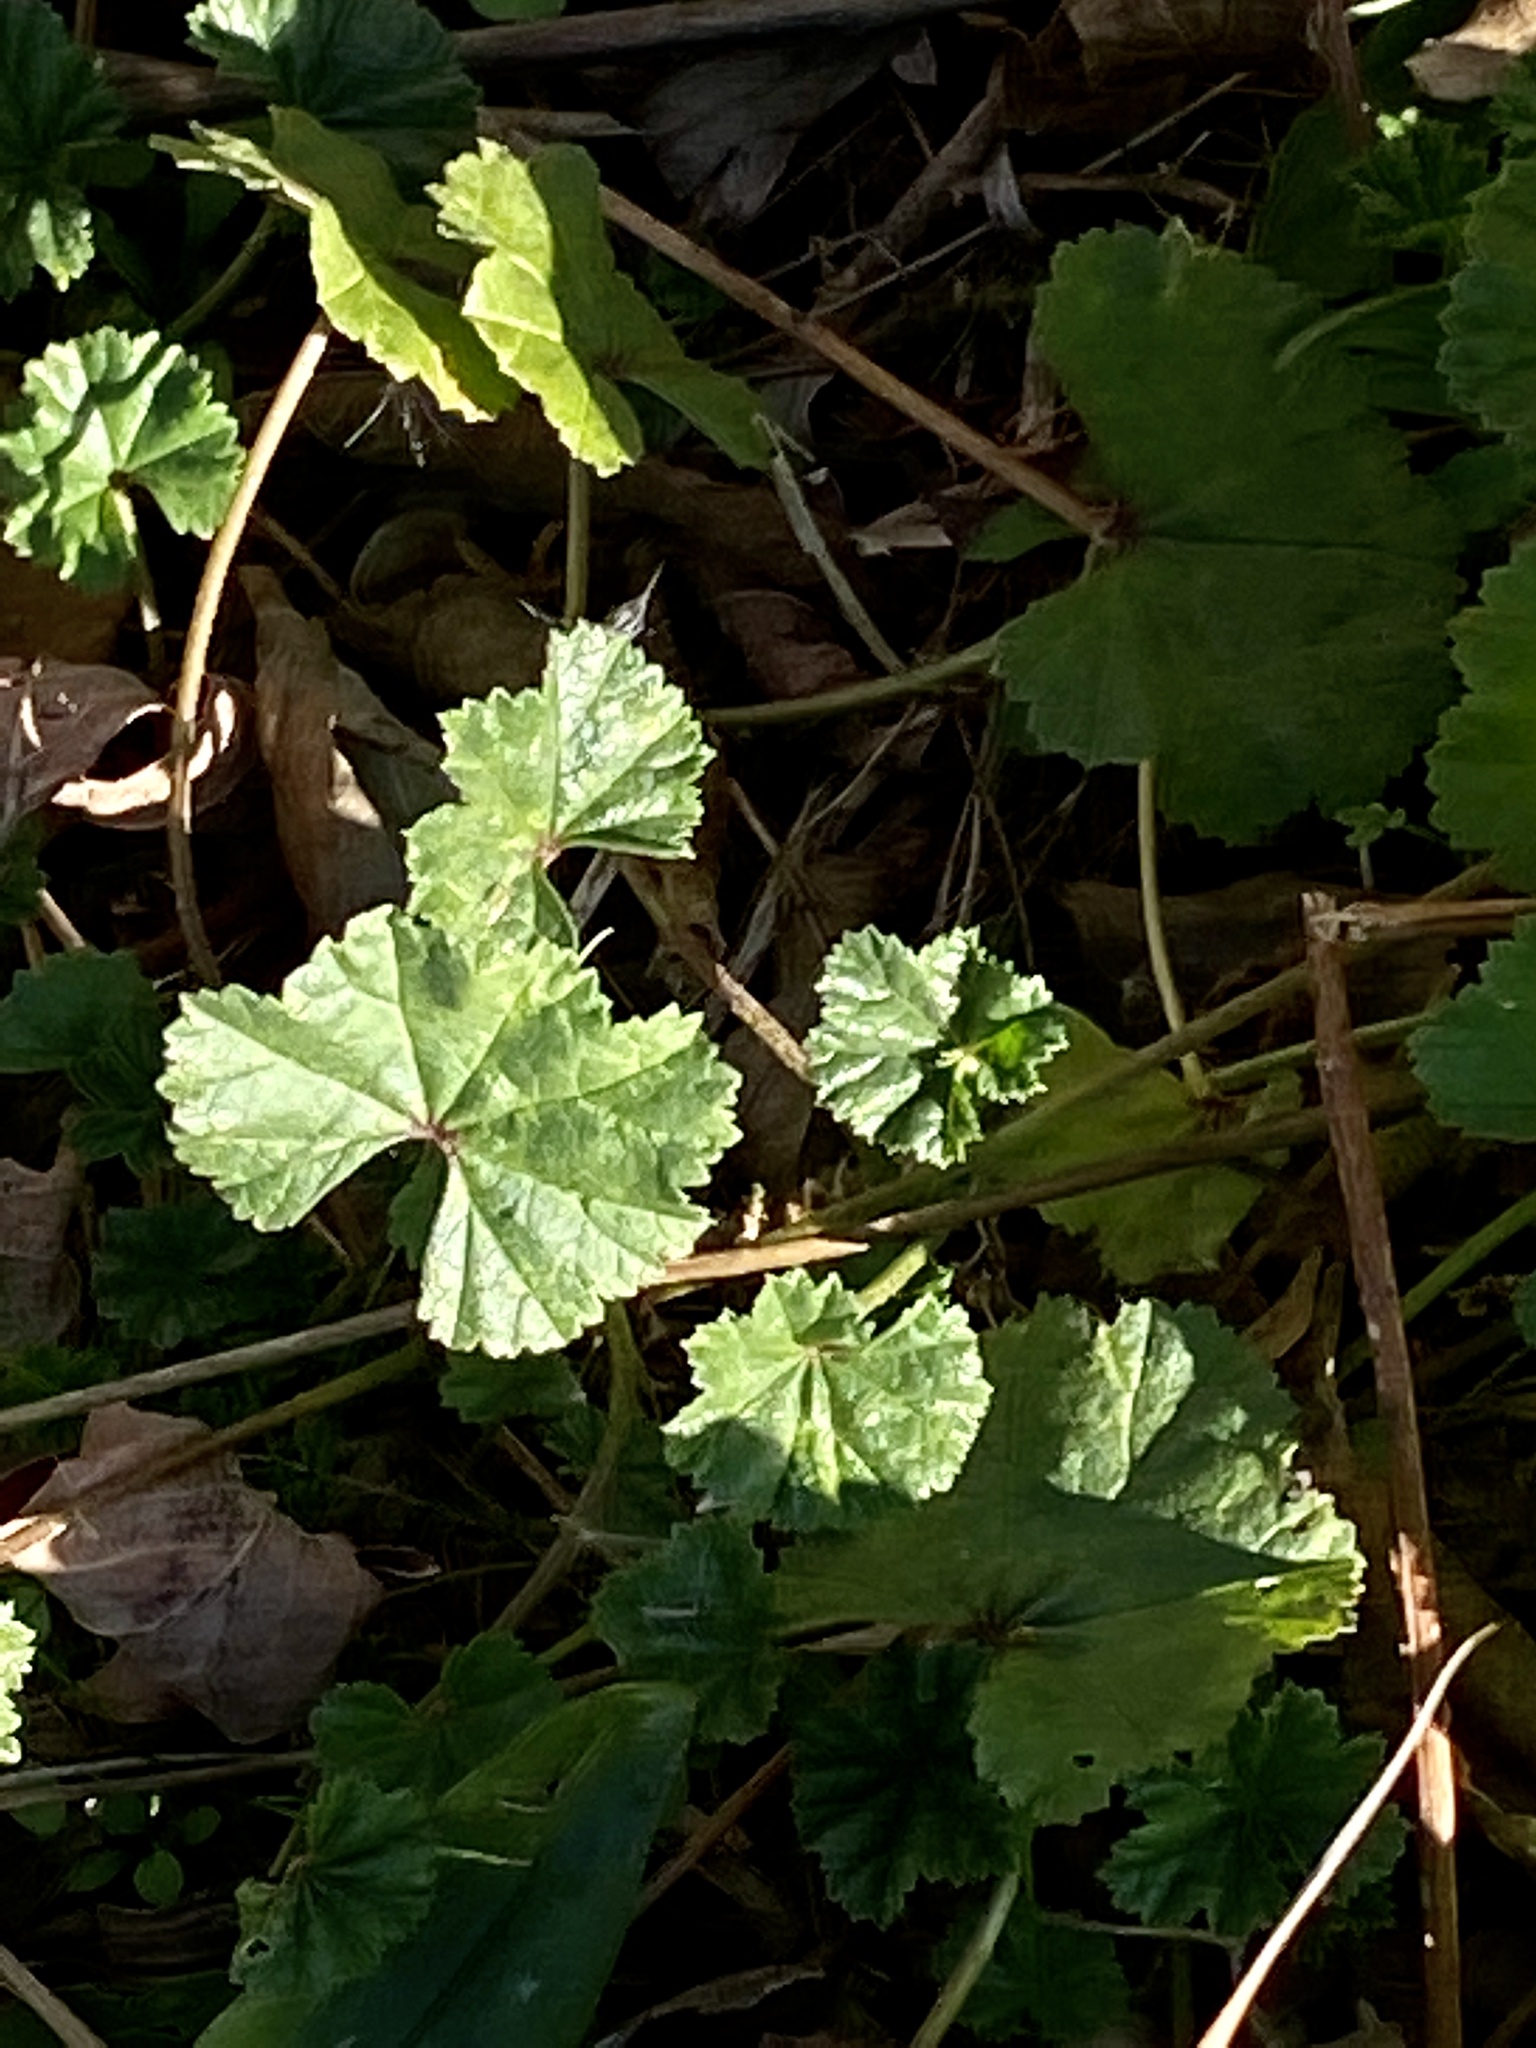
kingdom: Plantae
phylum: Tracheophyta
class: Magnoliopsida
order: Malvales
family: Malvaceae
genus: Malva
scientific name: Malva neglecta
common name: Common mallow
